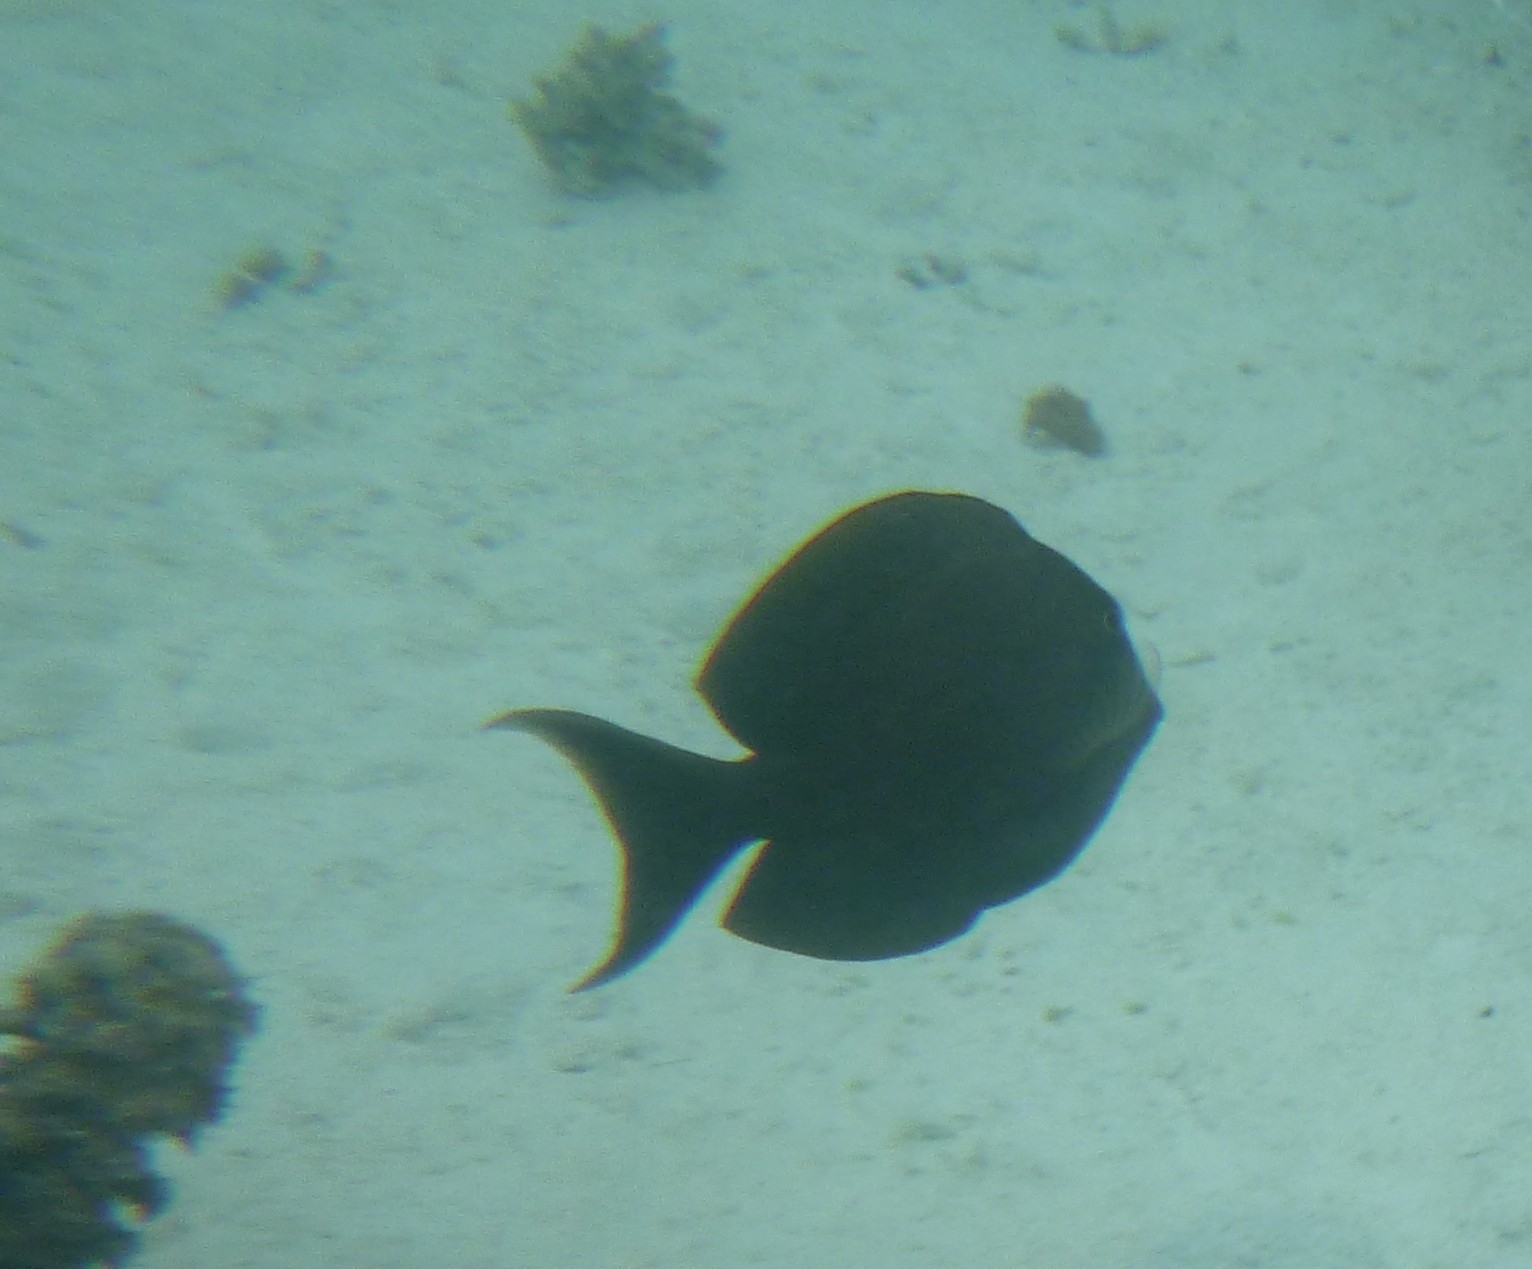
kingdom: Animalia
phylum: Chordata
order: Perciformes
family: Acanthuridae
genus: Ctenochaetus
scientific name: Ctenochaetus striatus
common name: Bristle-toothed surgeonfish
